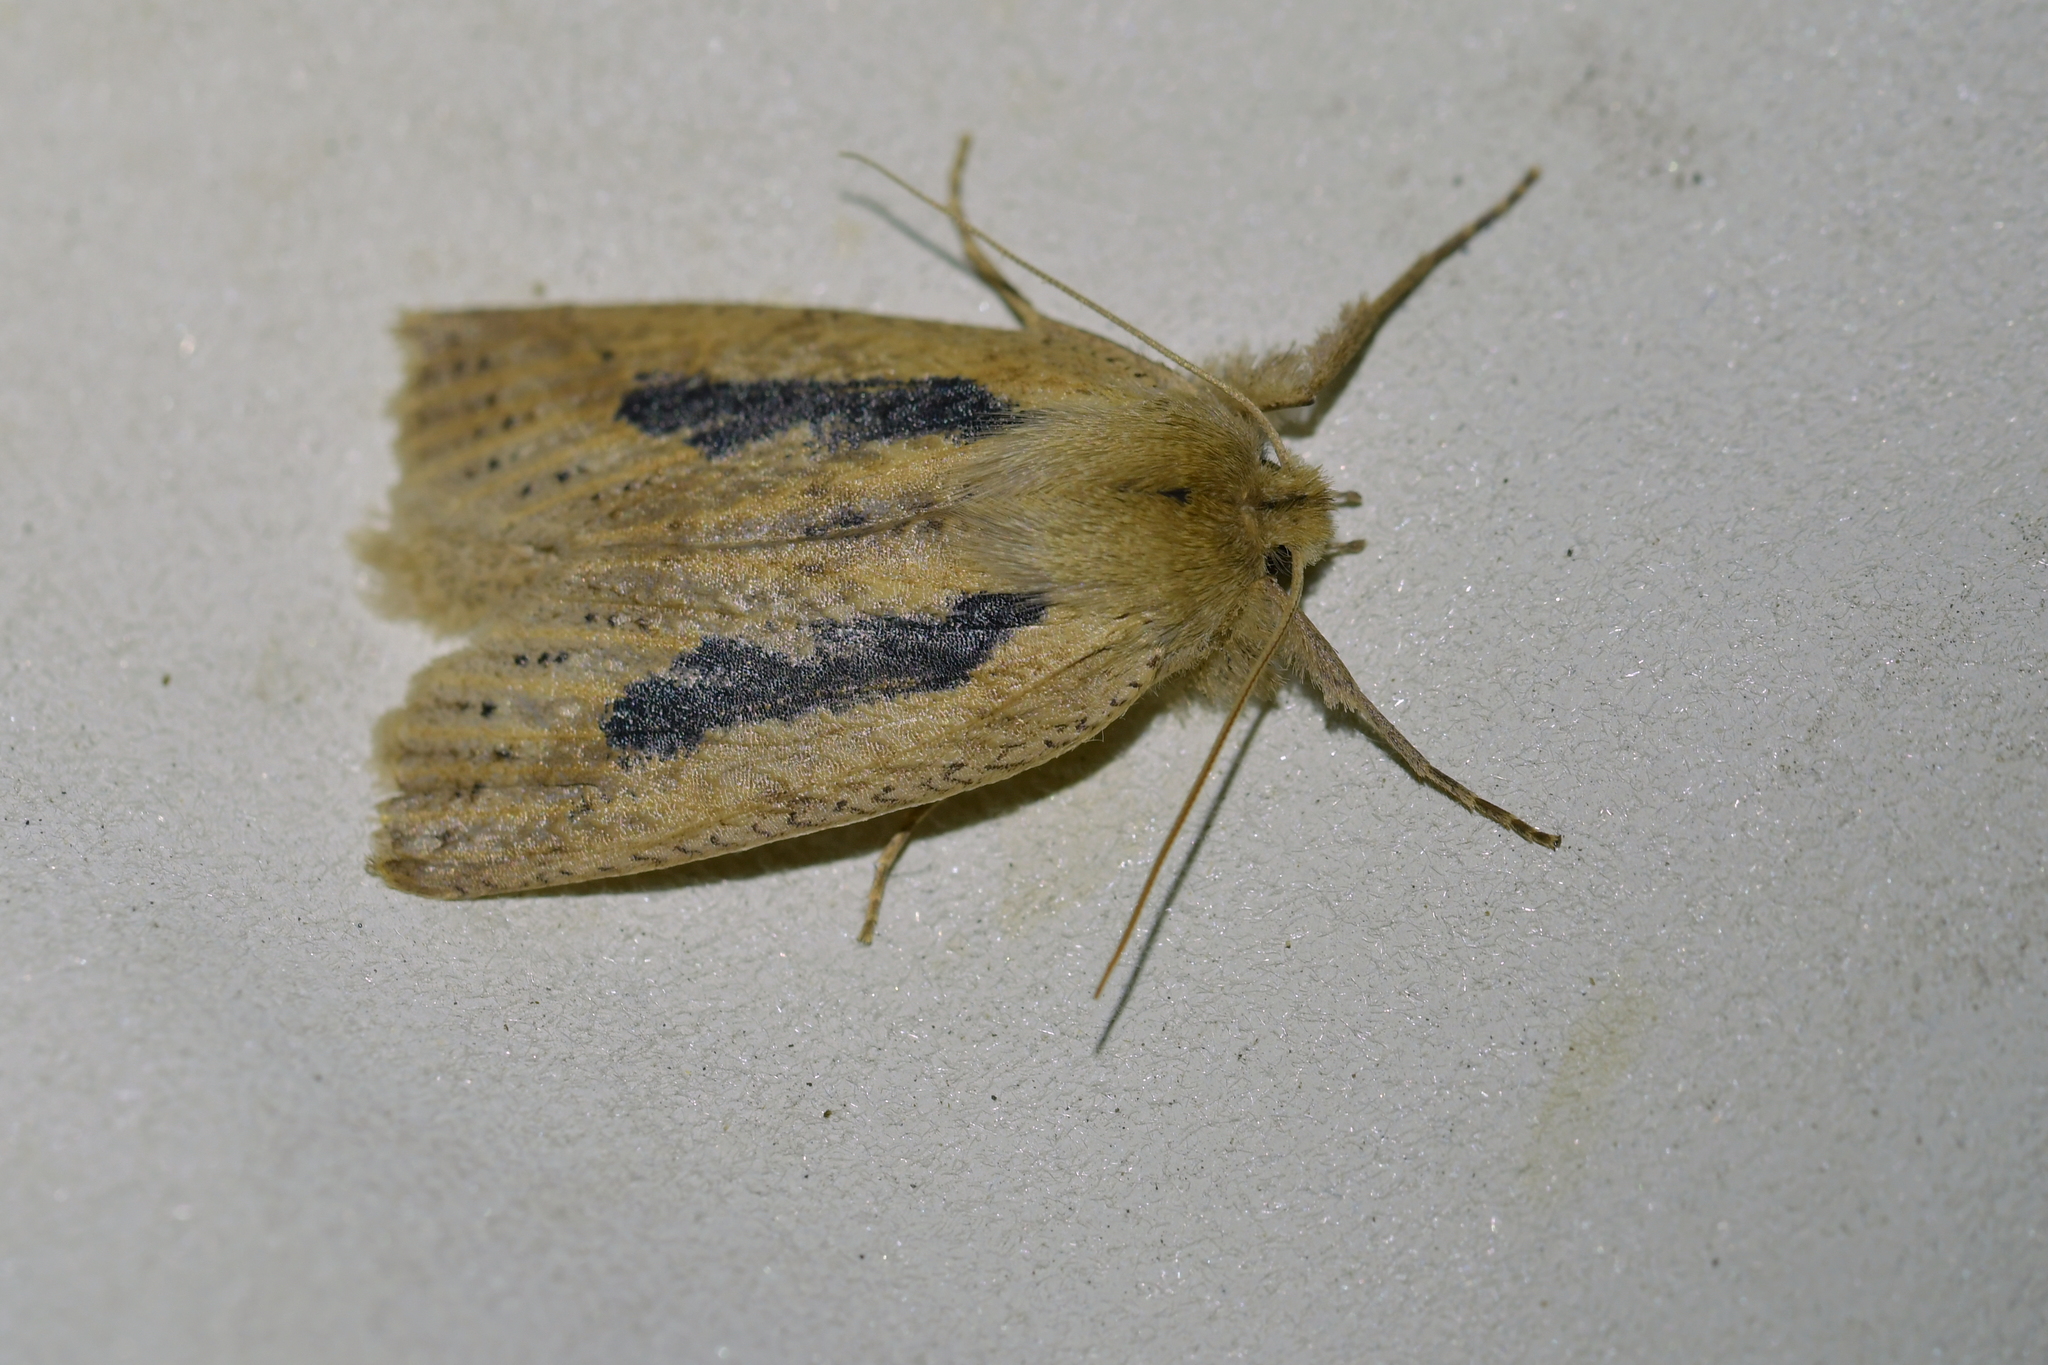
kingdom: Animalia
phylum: Arthropoda
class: Insecta
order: Lepidoptera
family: Geometridae
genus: Declana
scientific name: Declana leptomera
